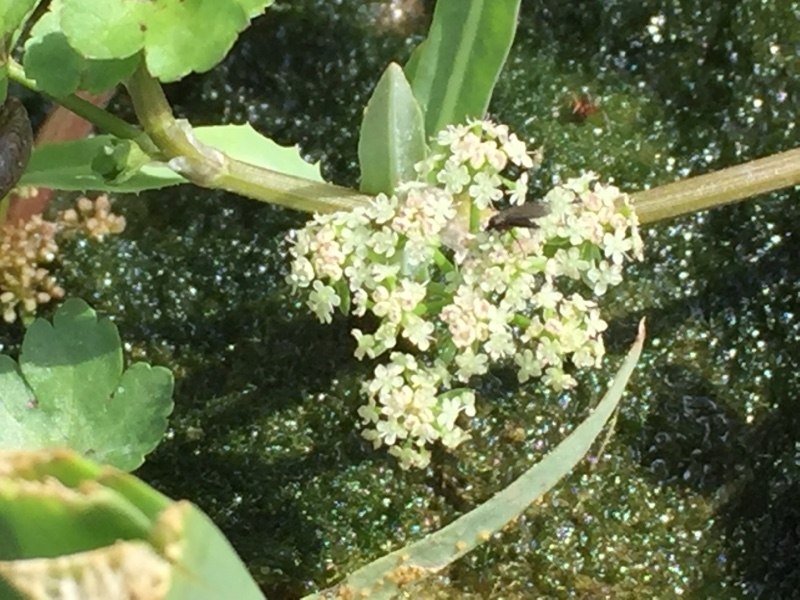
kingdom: Plantae
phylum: Tracheophyta
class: Magnoliopsida
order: Apiales
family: Apiaceae
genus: Helosciadium
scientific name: Helosciadium nodiflorum
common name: Fool's-watercress
